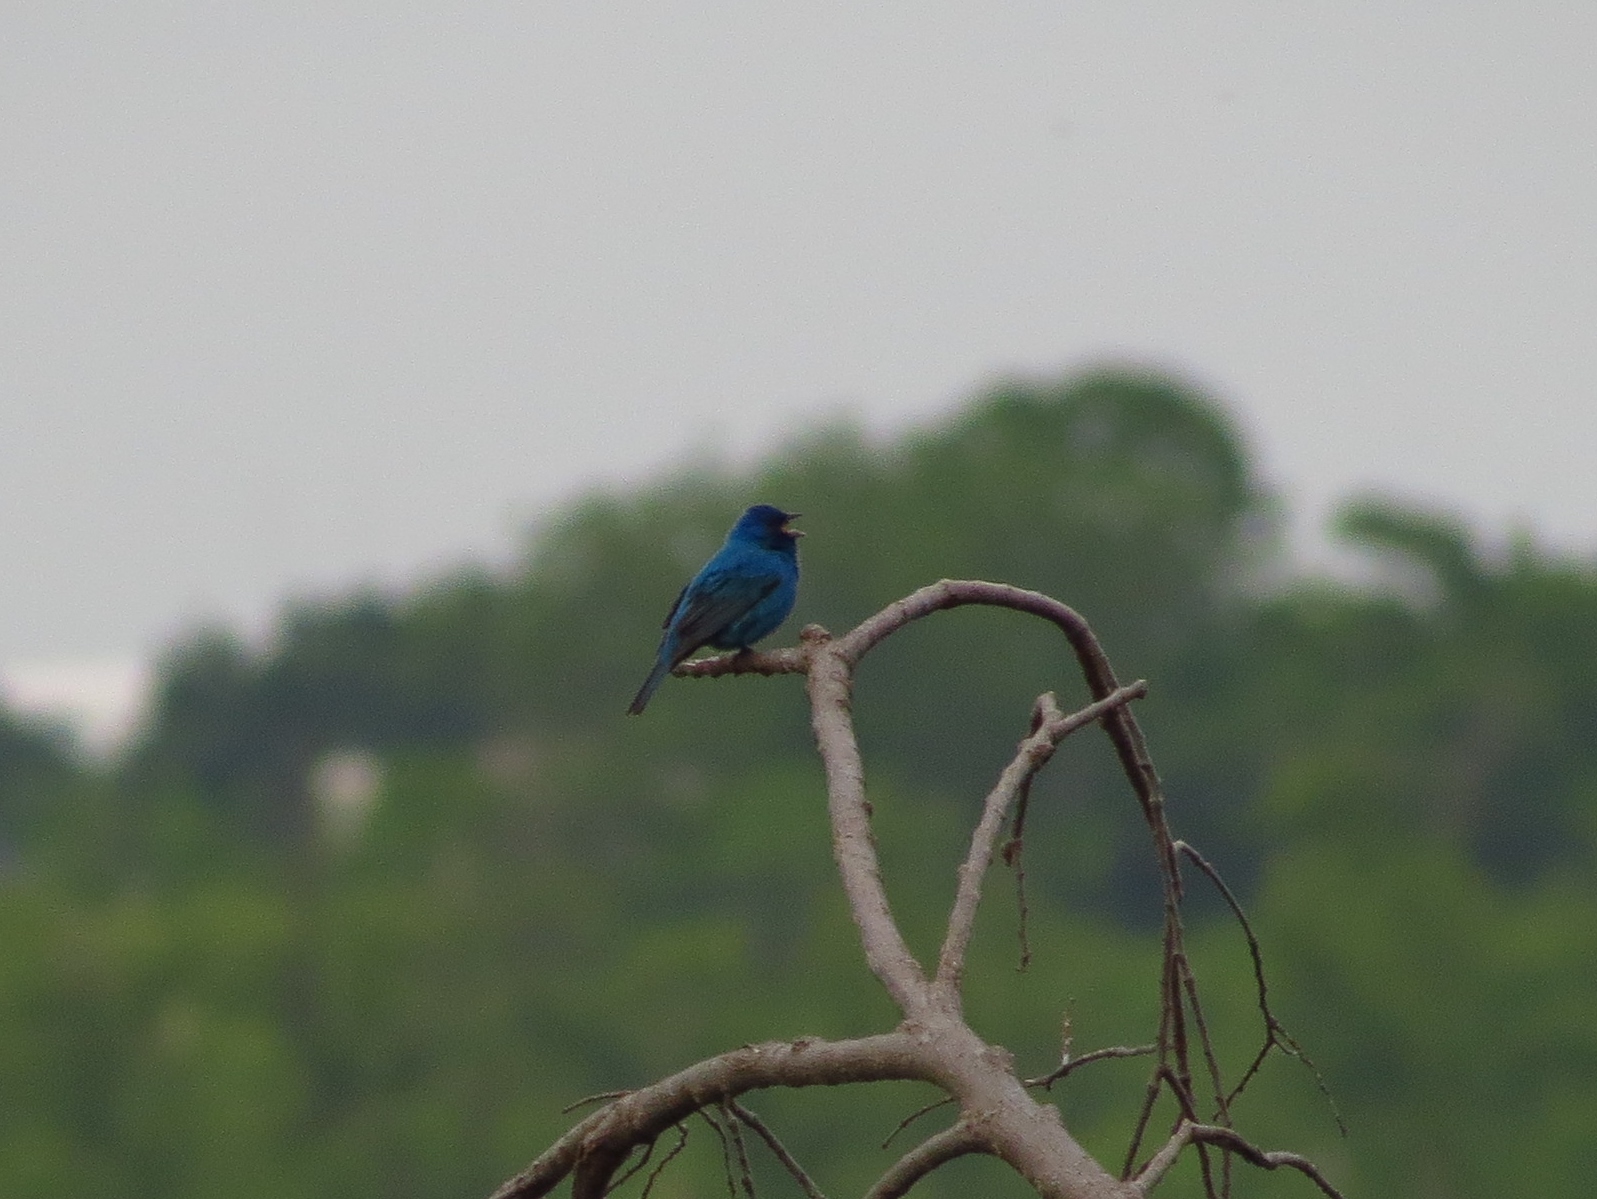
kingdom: Animalia
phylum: Chordata
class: Aves
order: Passeriformes
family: Cardinalidae
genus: Passerina
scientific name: Passerina cyanea
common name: Indigo bunting
